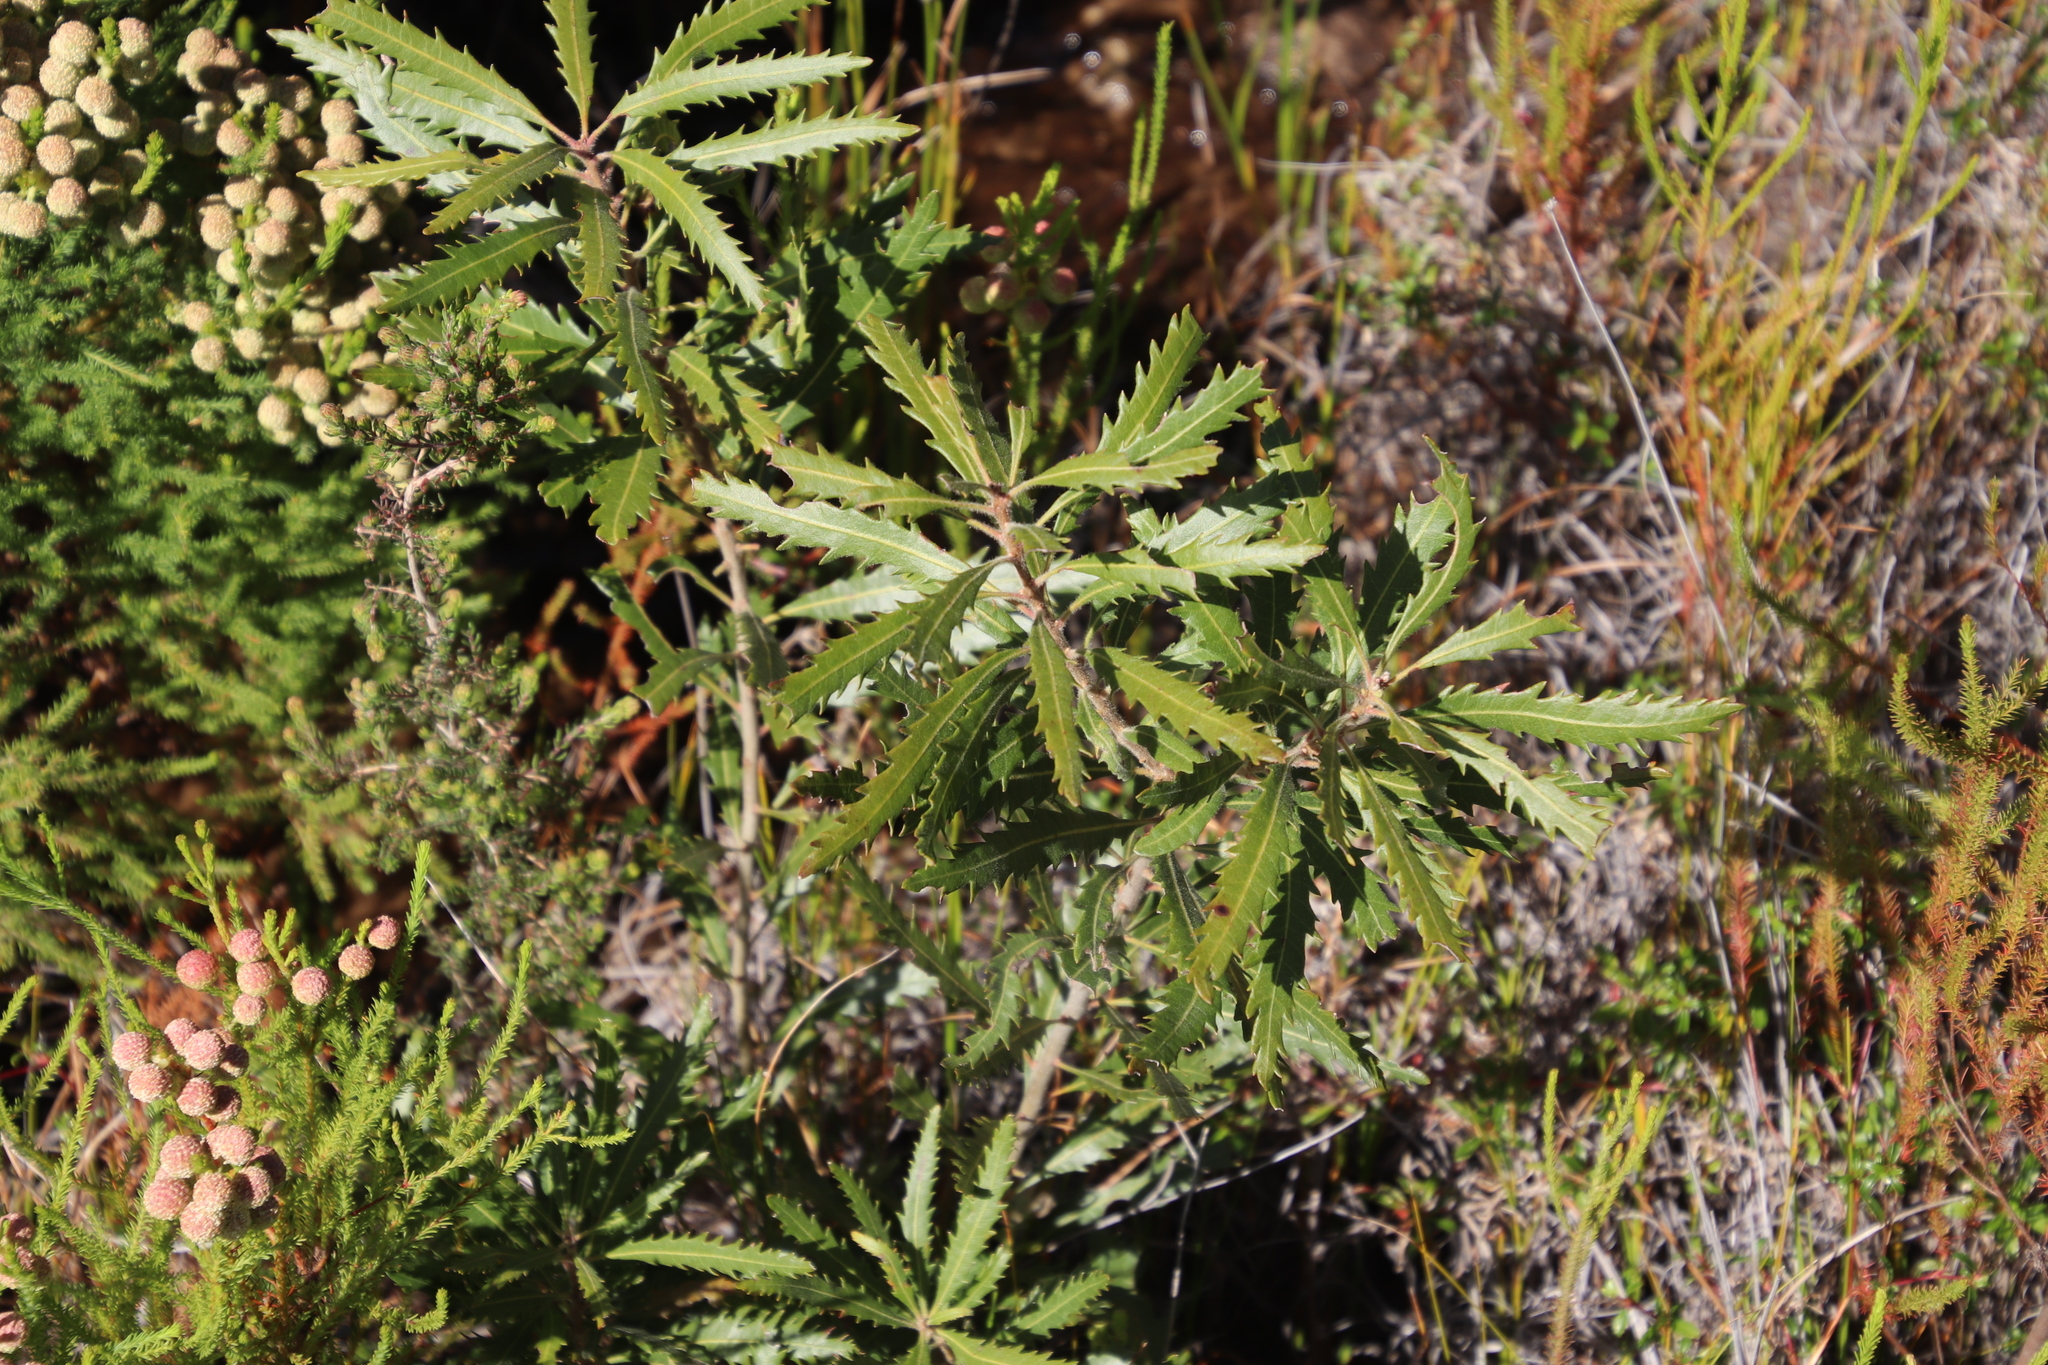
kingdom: Plantae
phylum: Tracheophyta
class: Magnoliopsida
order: Fagales
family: Myricaceae
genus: Morella
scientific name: Morella serrata
